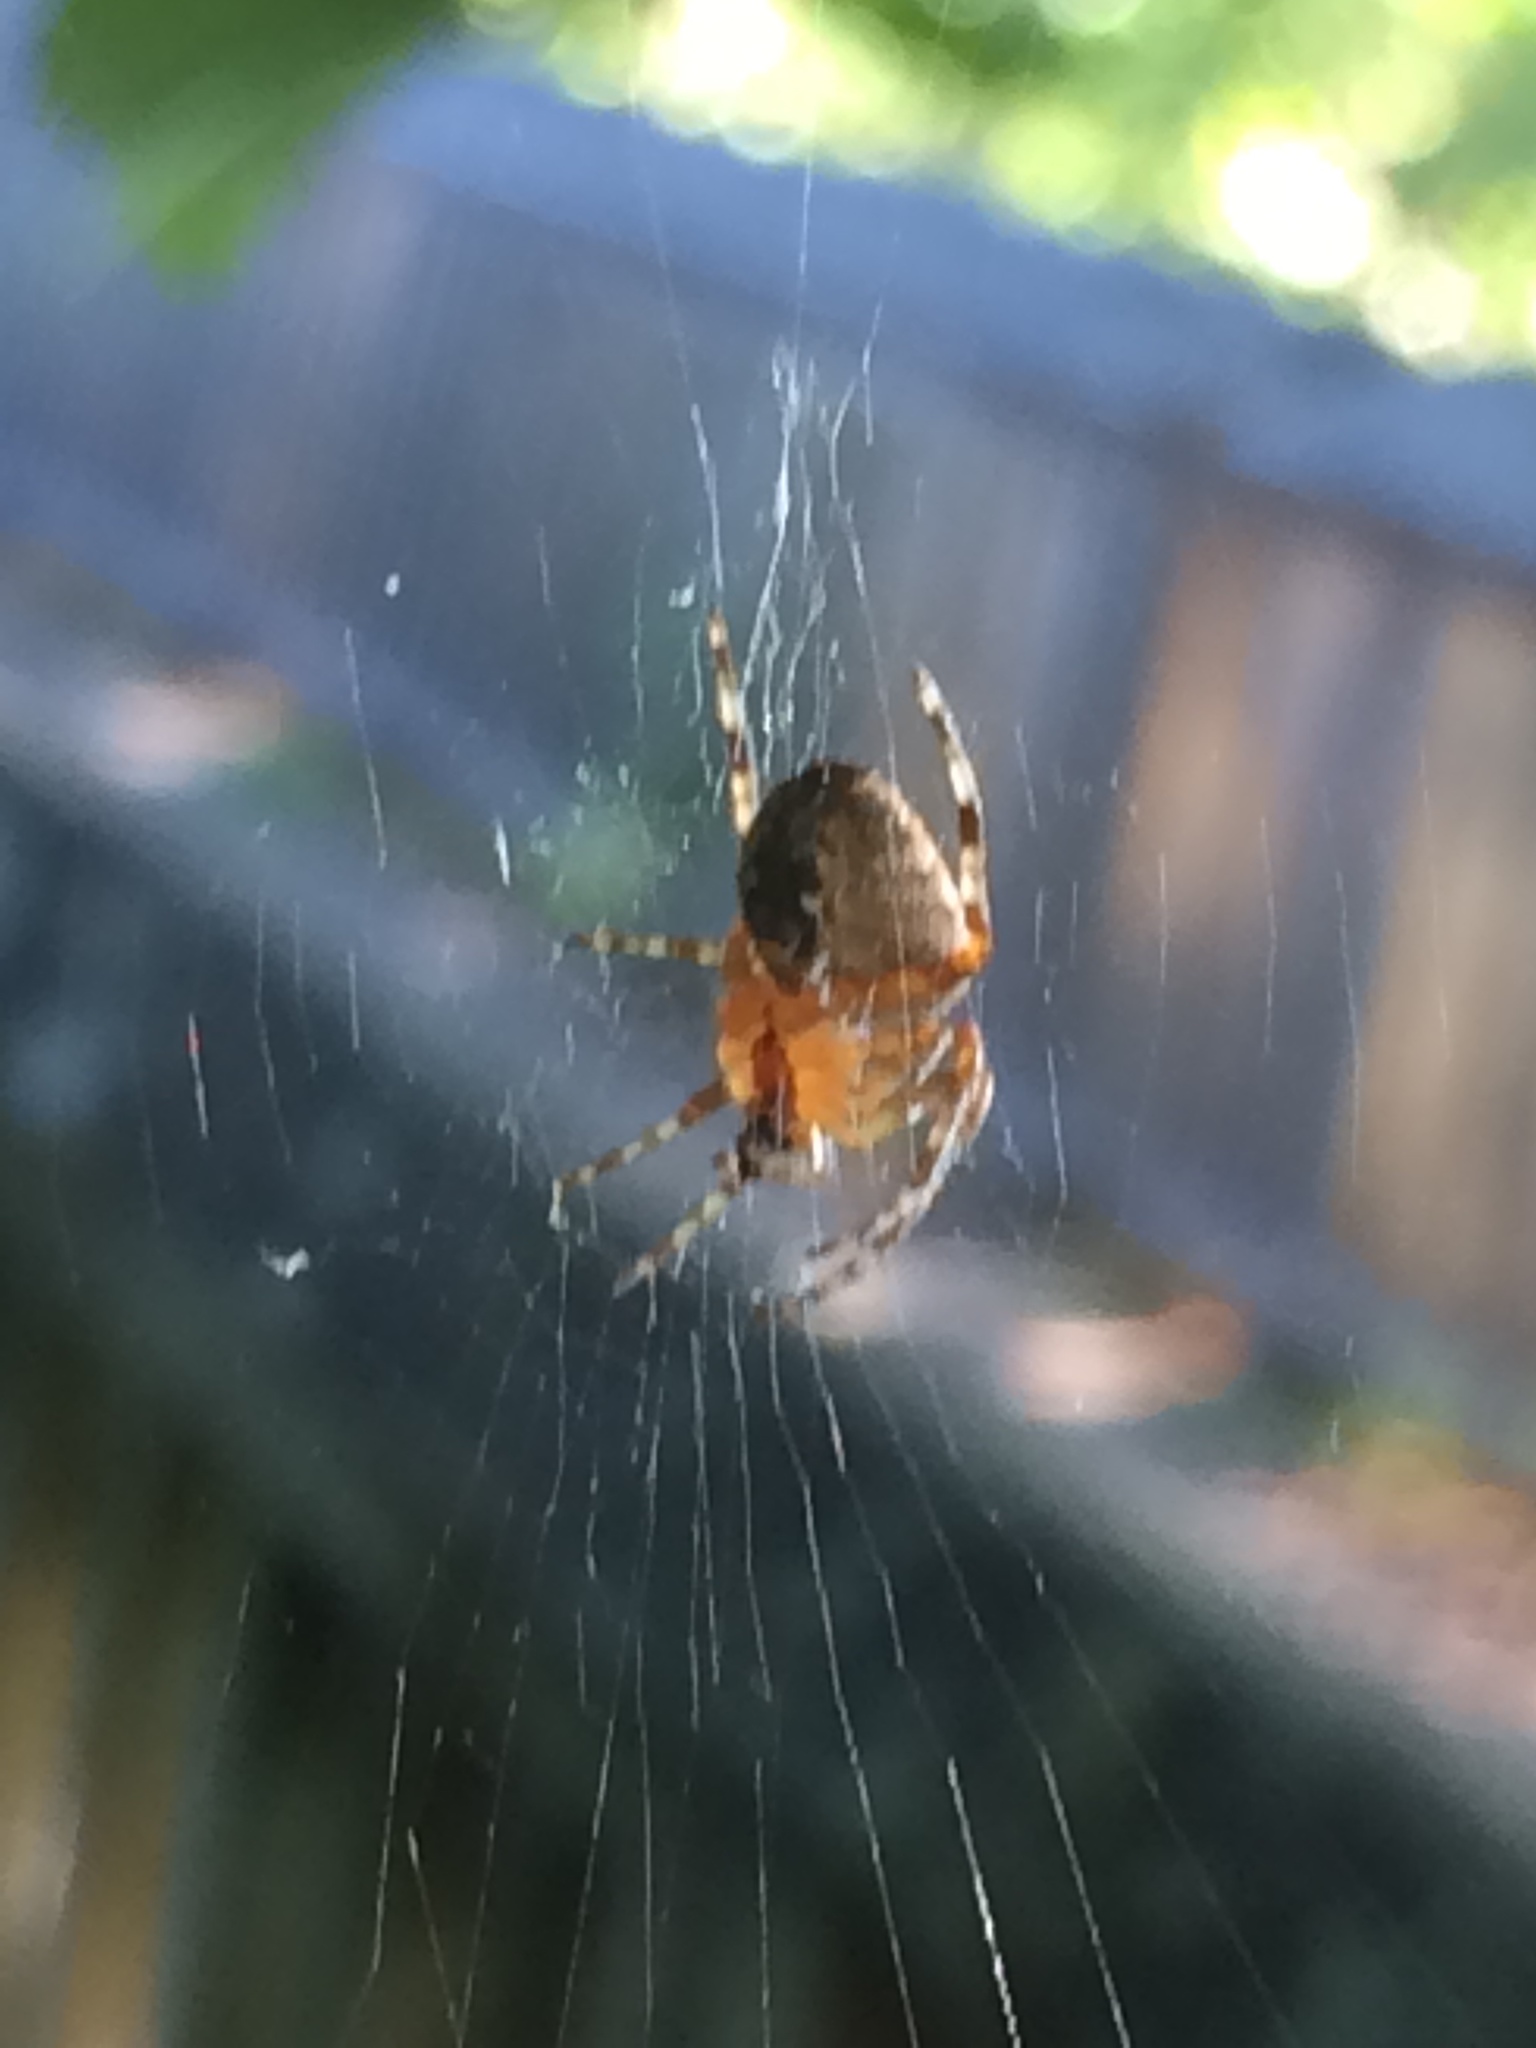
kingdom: Animalia
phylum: Arthropoda
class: Arachnida
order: Araneae
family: Araneidae
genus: Araneus
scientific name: Araneus diadematus
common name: Cross orbweaver
